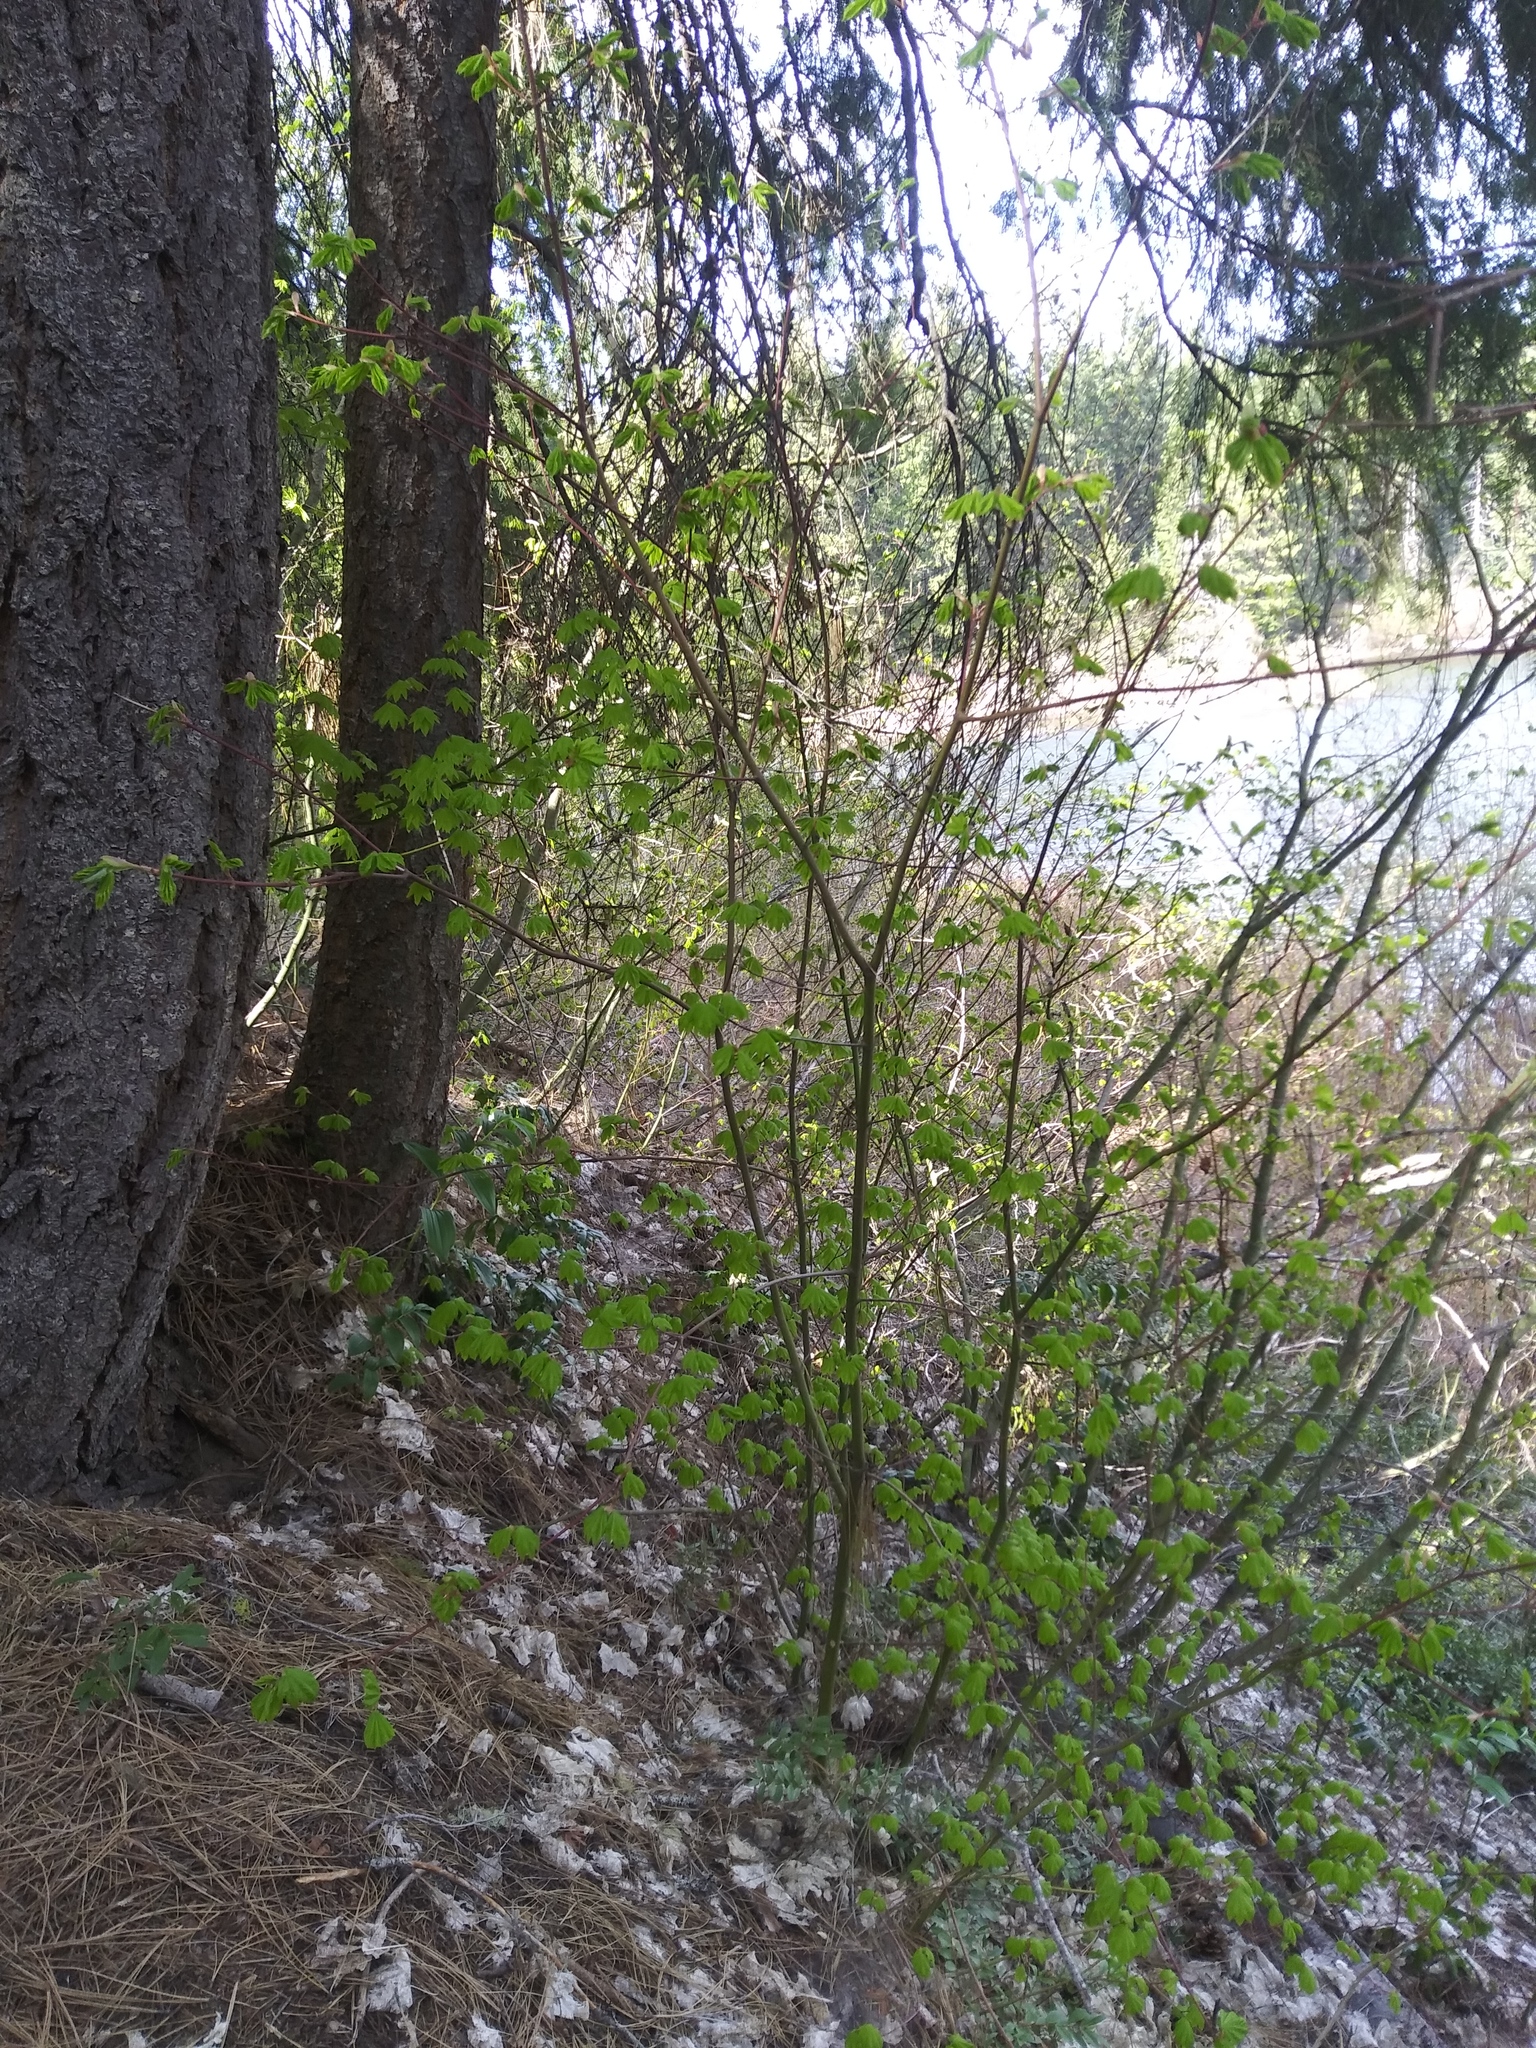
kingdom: Plantae
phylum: Tracheophyta
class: Magnoliopsida
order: Sapindales
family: Sapindaceae
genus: Acer
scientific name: Acer circinatum
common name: Vine maple
